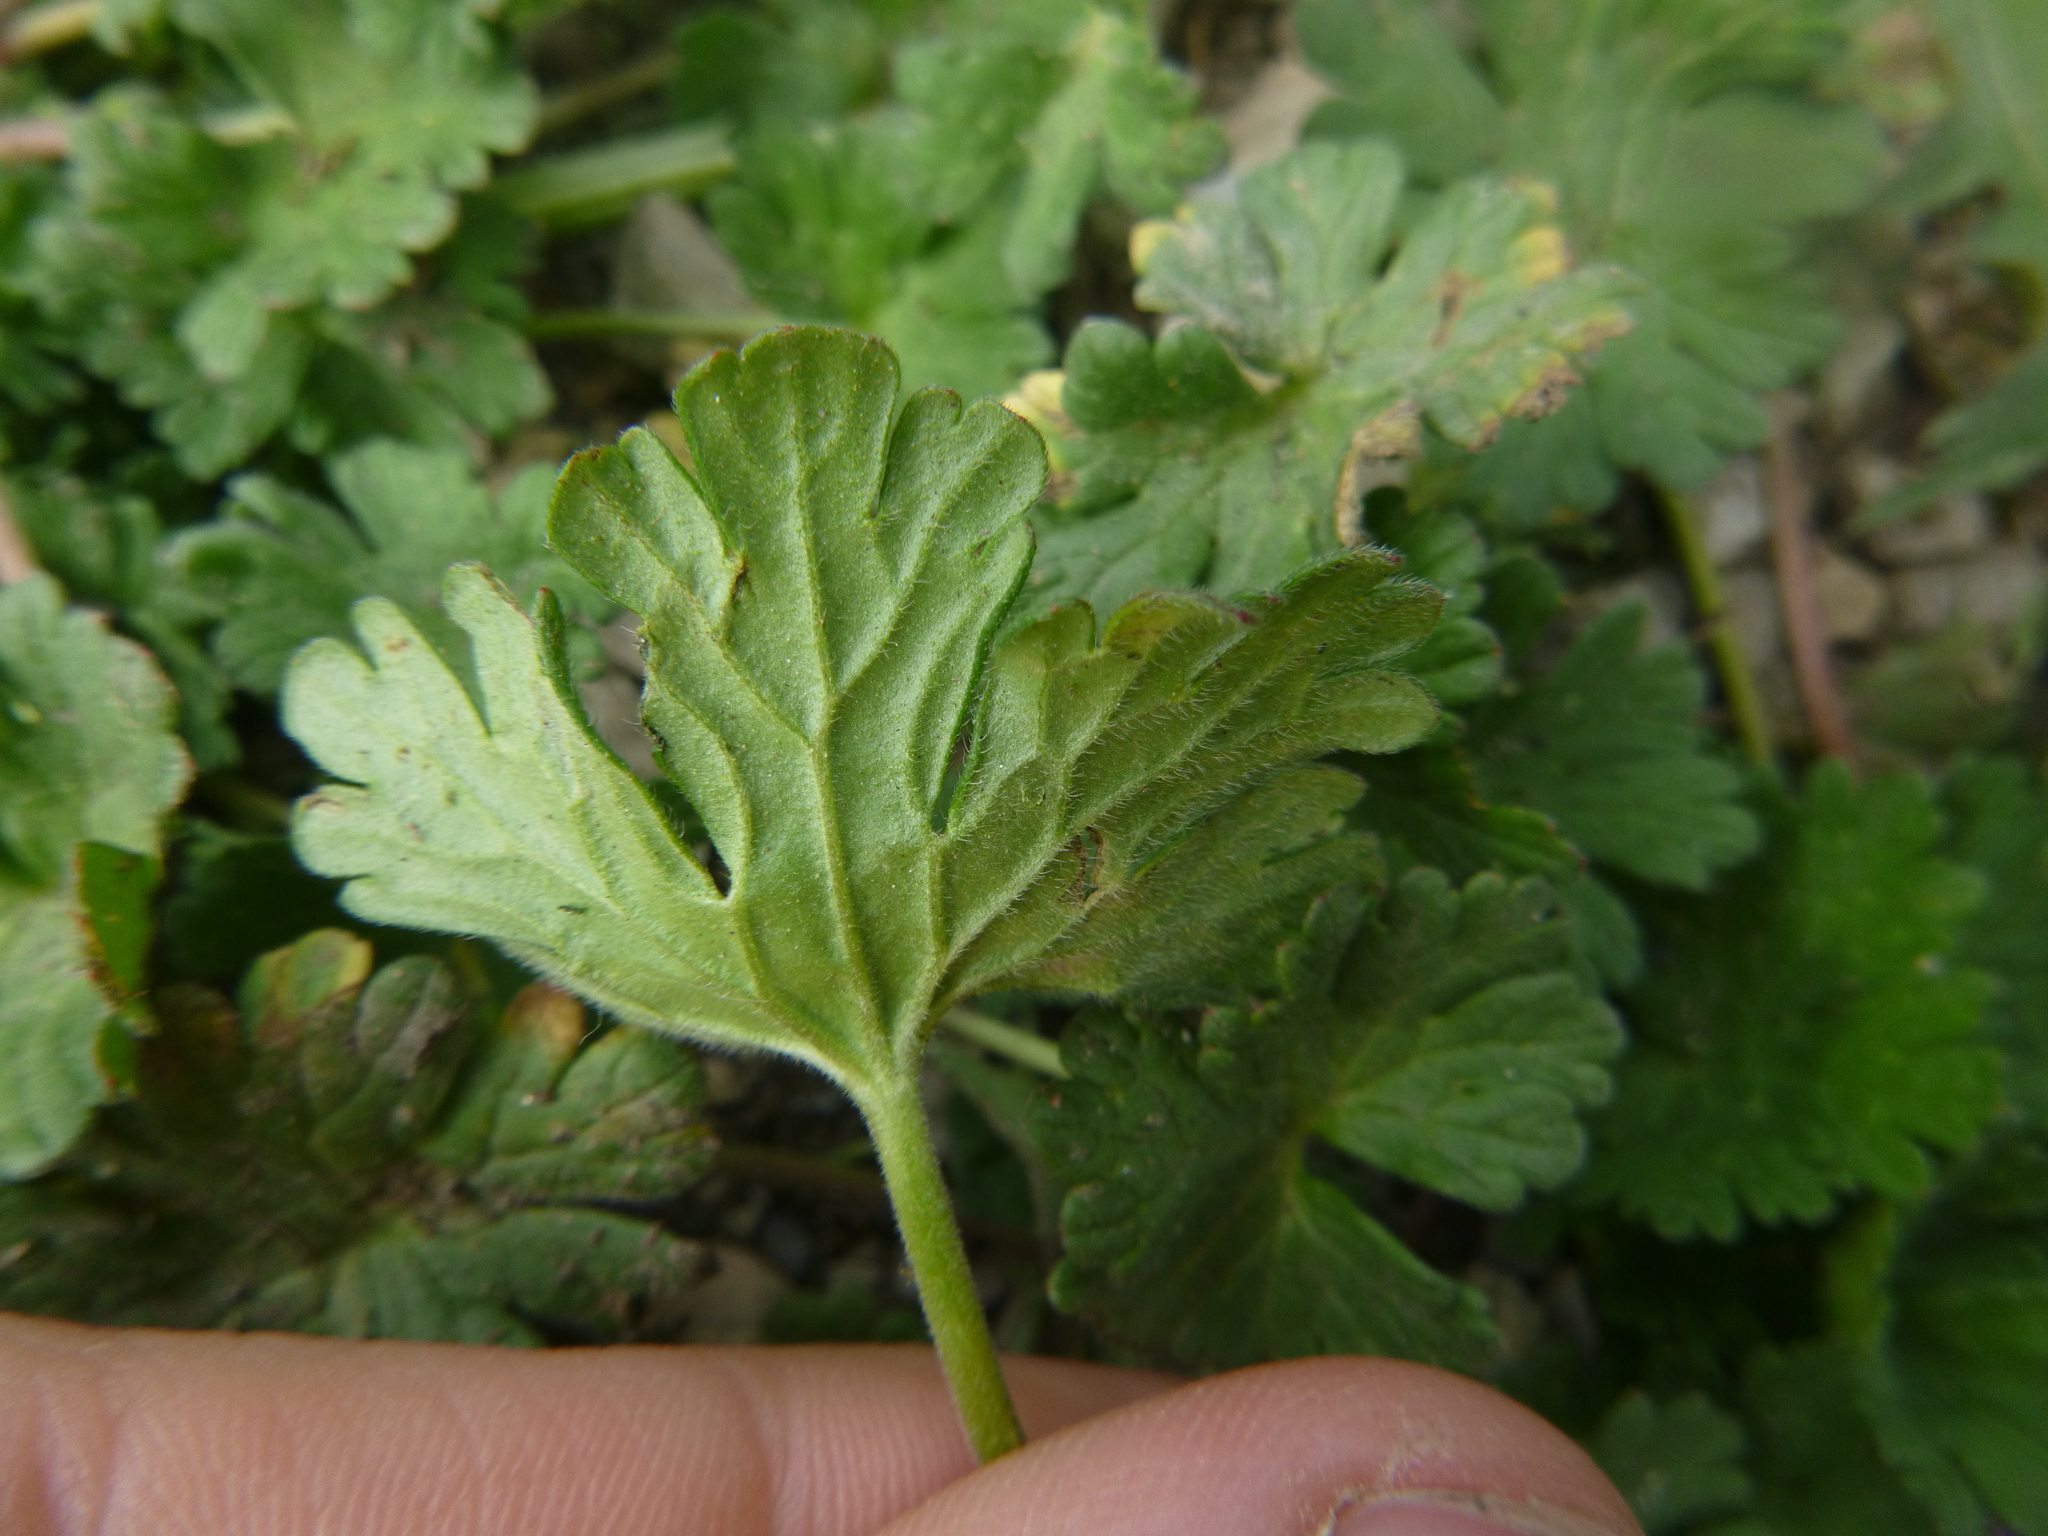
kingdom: Plantae
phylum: Tracheophyta
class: Magnoliopsida
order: Geraniales
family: Geraniaceae
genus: Geranium
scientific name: Geranium pusillum
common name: Small geranium
